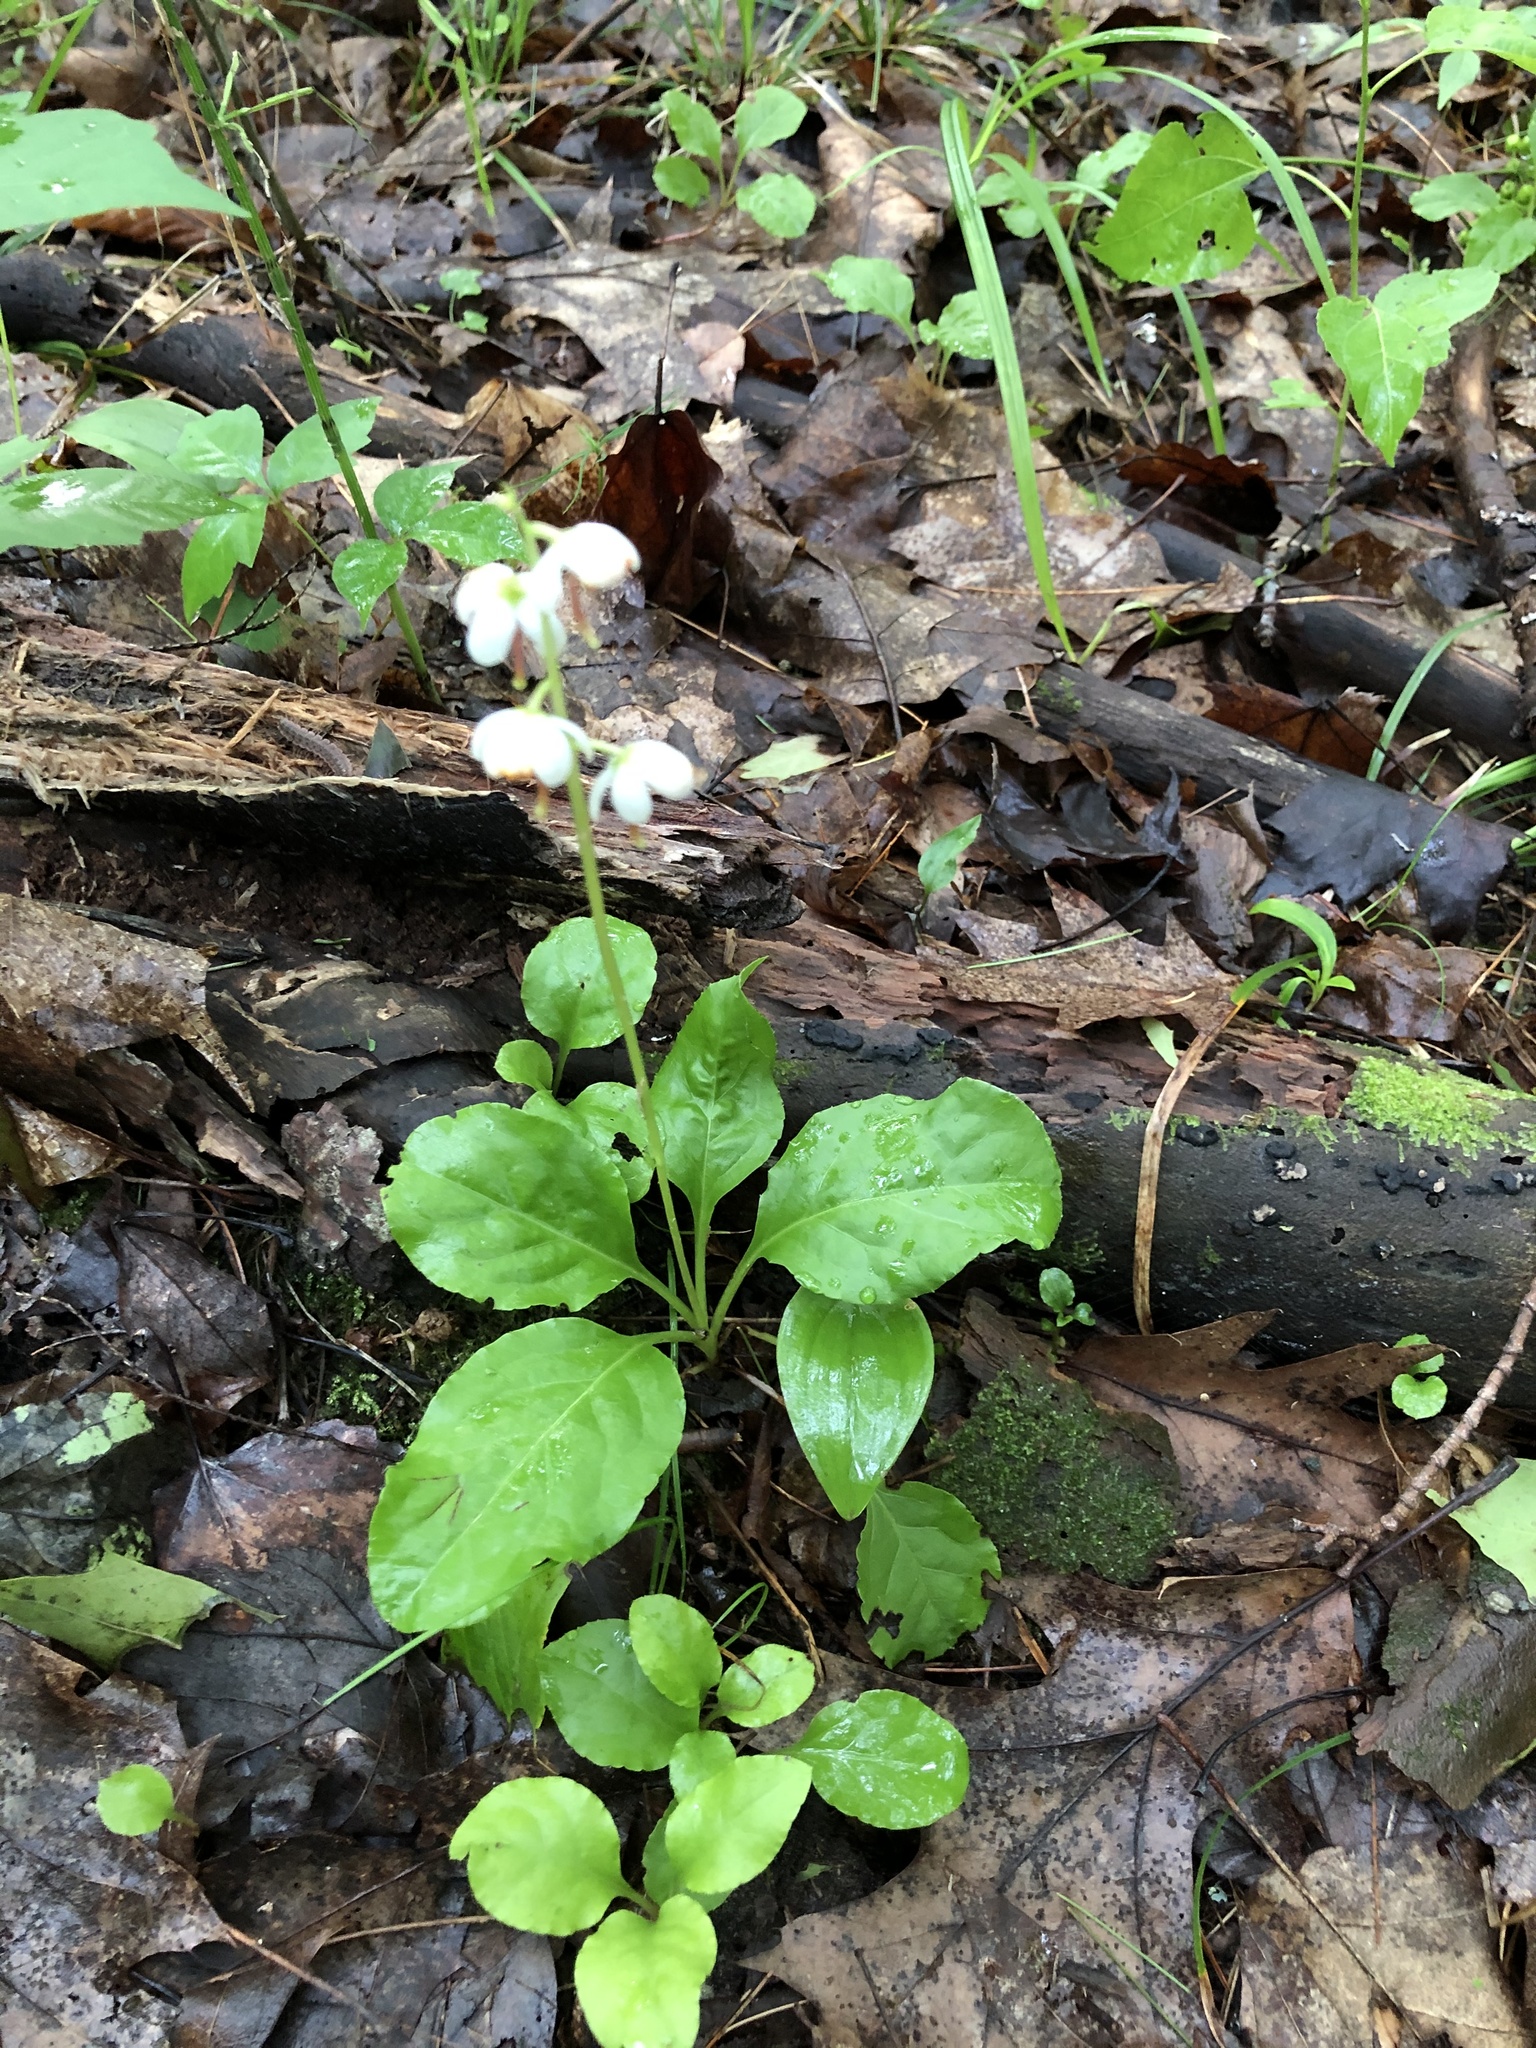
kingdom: Plantae
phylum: Tracheophyta
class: Magnoliopsida
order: Ericales
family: Ericaceae
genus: Pyrola
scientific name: Pyrola elliptica
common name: Shinleaf
